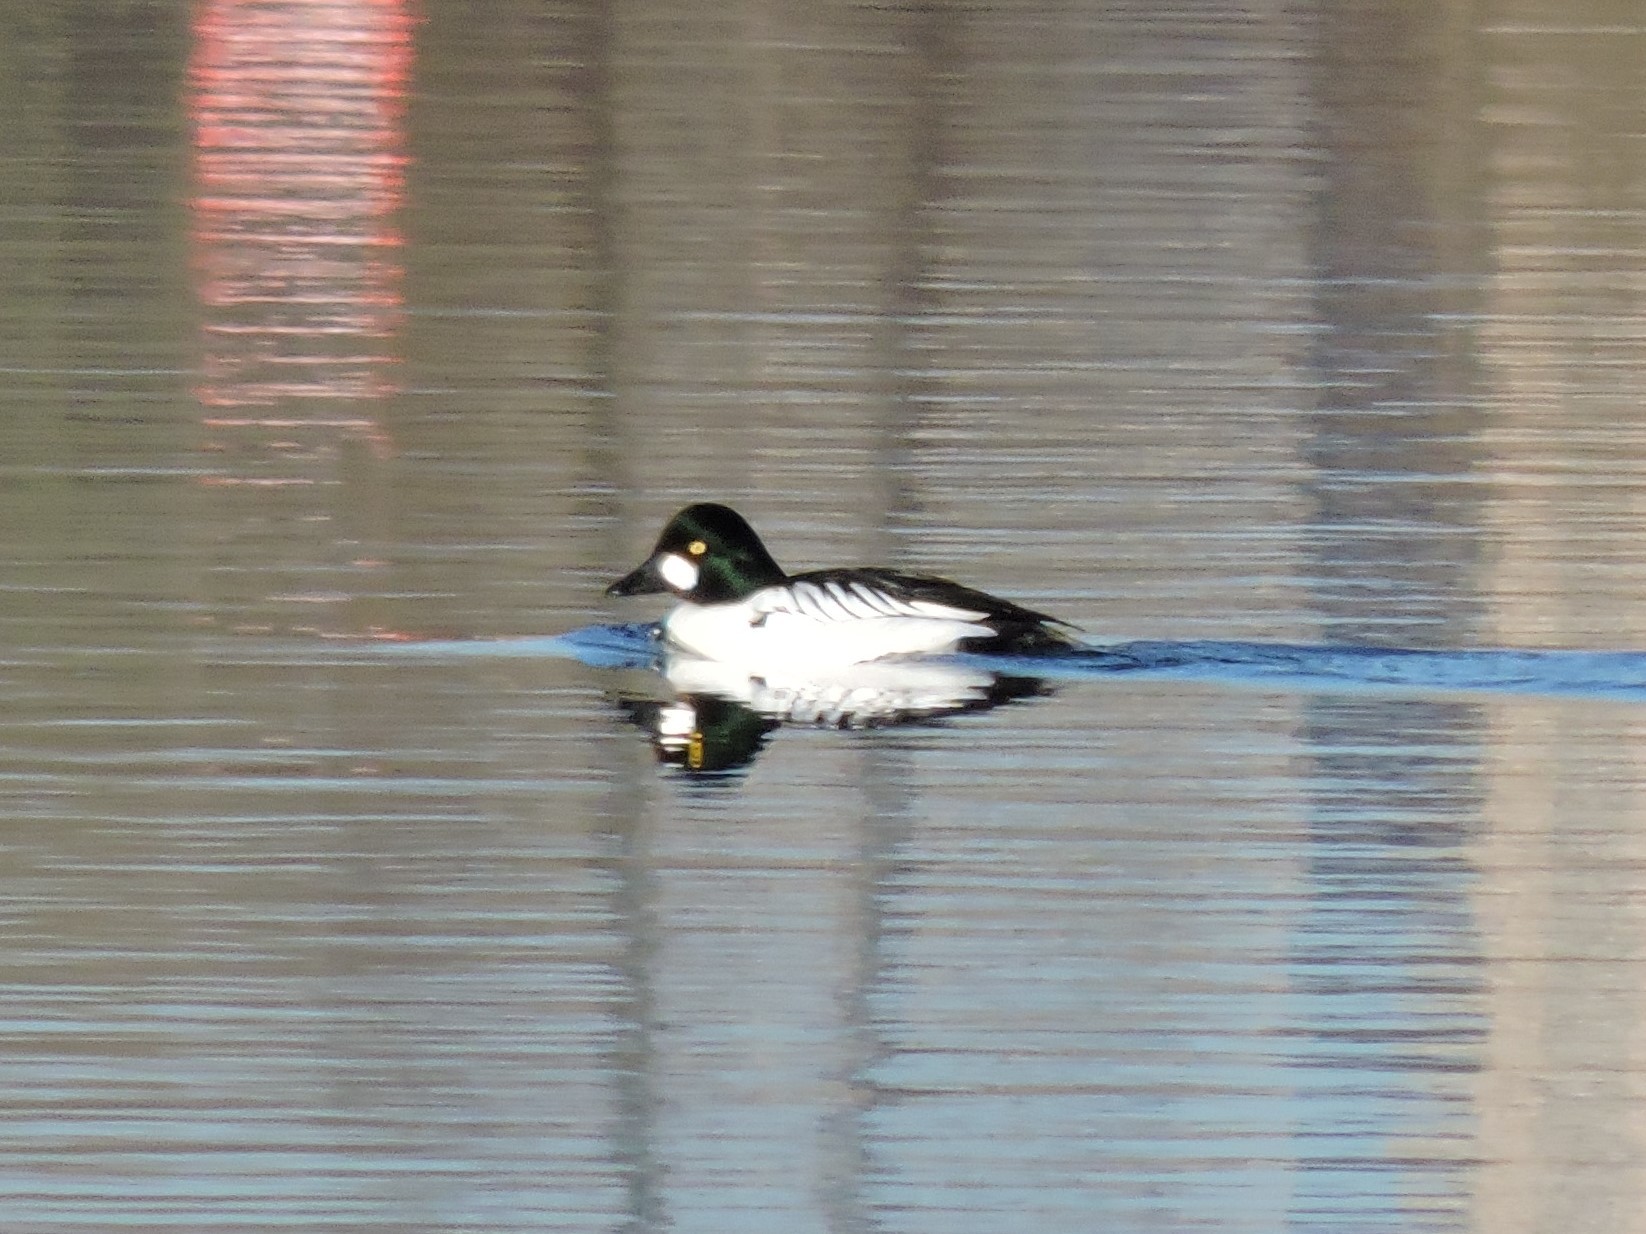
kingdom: Animalia
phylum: Chordata
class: Aves
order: Anseriformes
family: Anatidae
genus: Bucephala
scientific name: Bucephala clangula
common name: Common goldeneye
